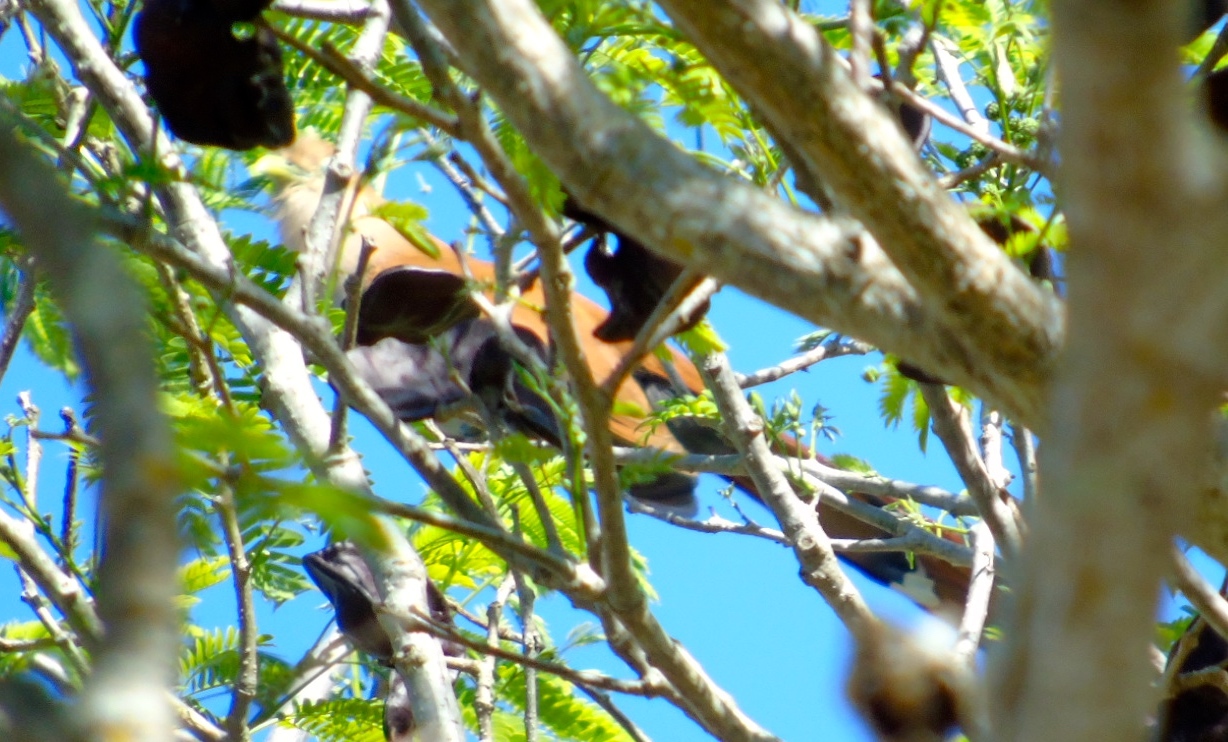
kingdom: Animalia
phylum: Chordata
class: Aves
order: Cuculiformes
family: Cuculidae
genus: Piaya
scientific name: Piaya cayana
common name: Squirrel cuckoo
